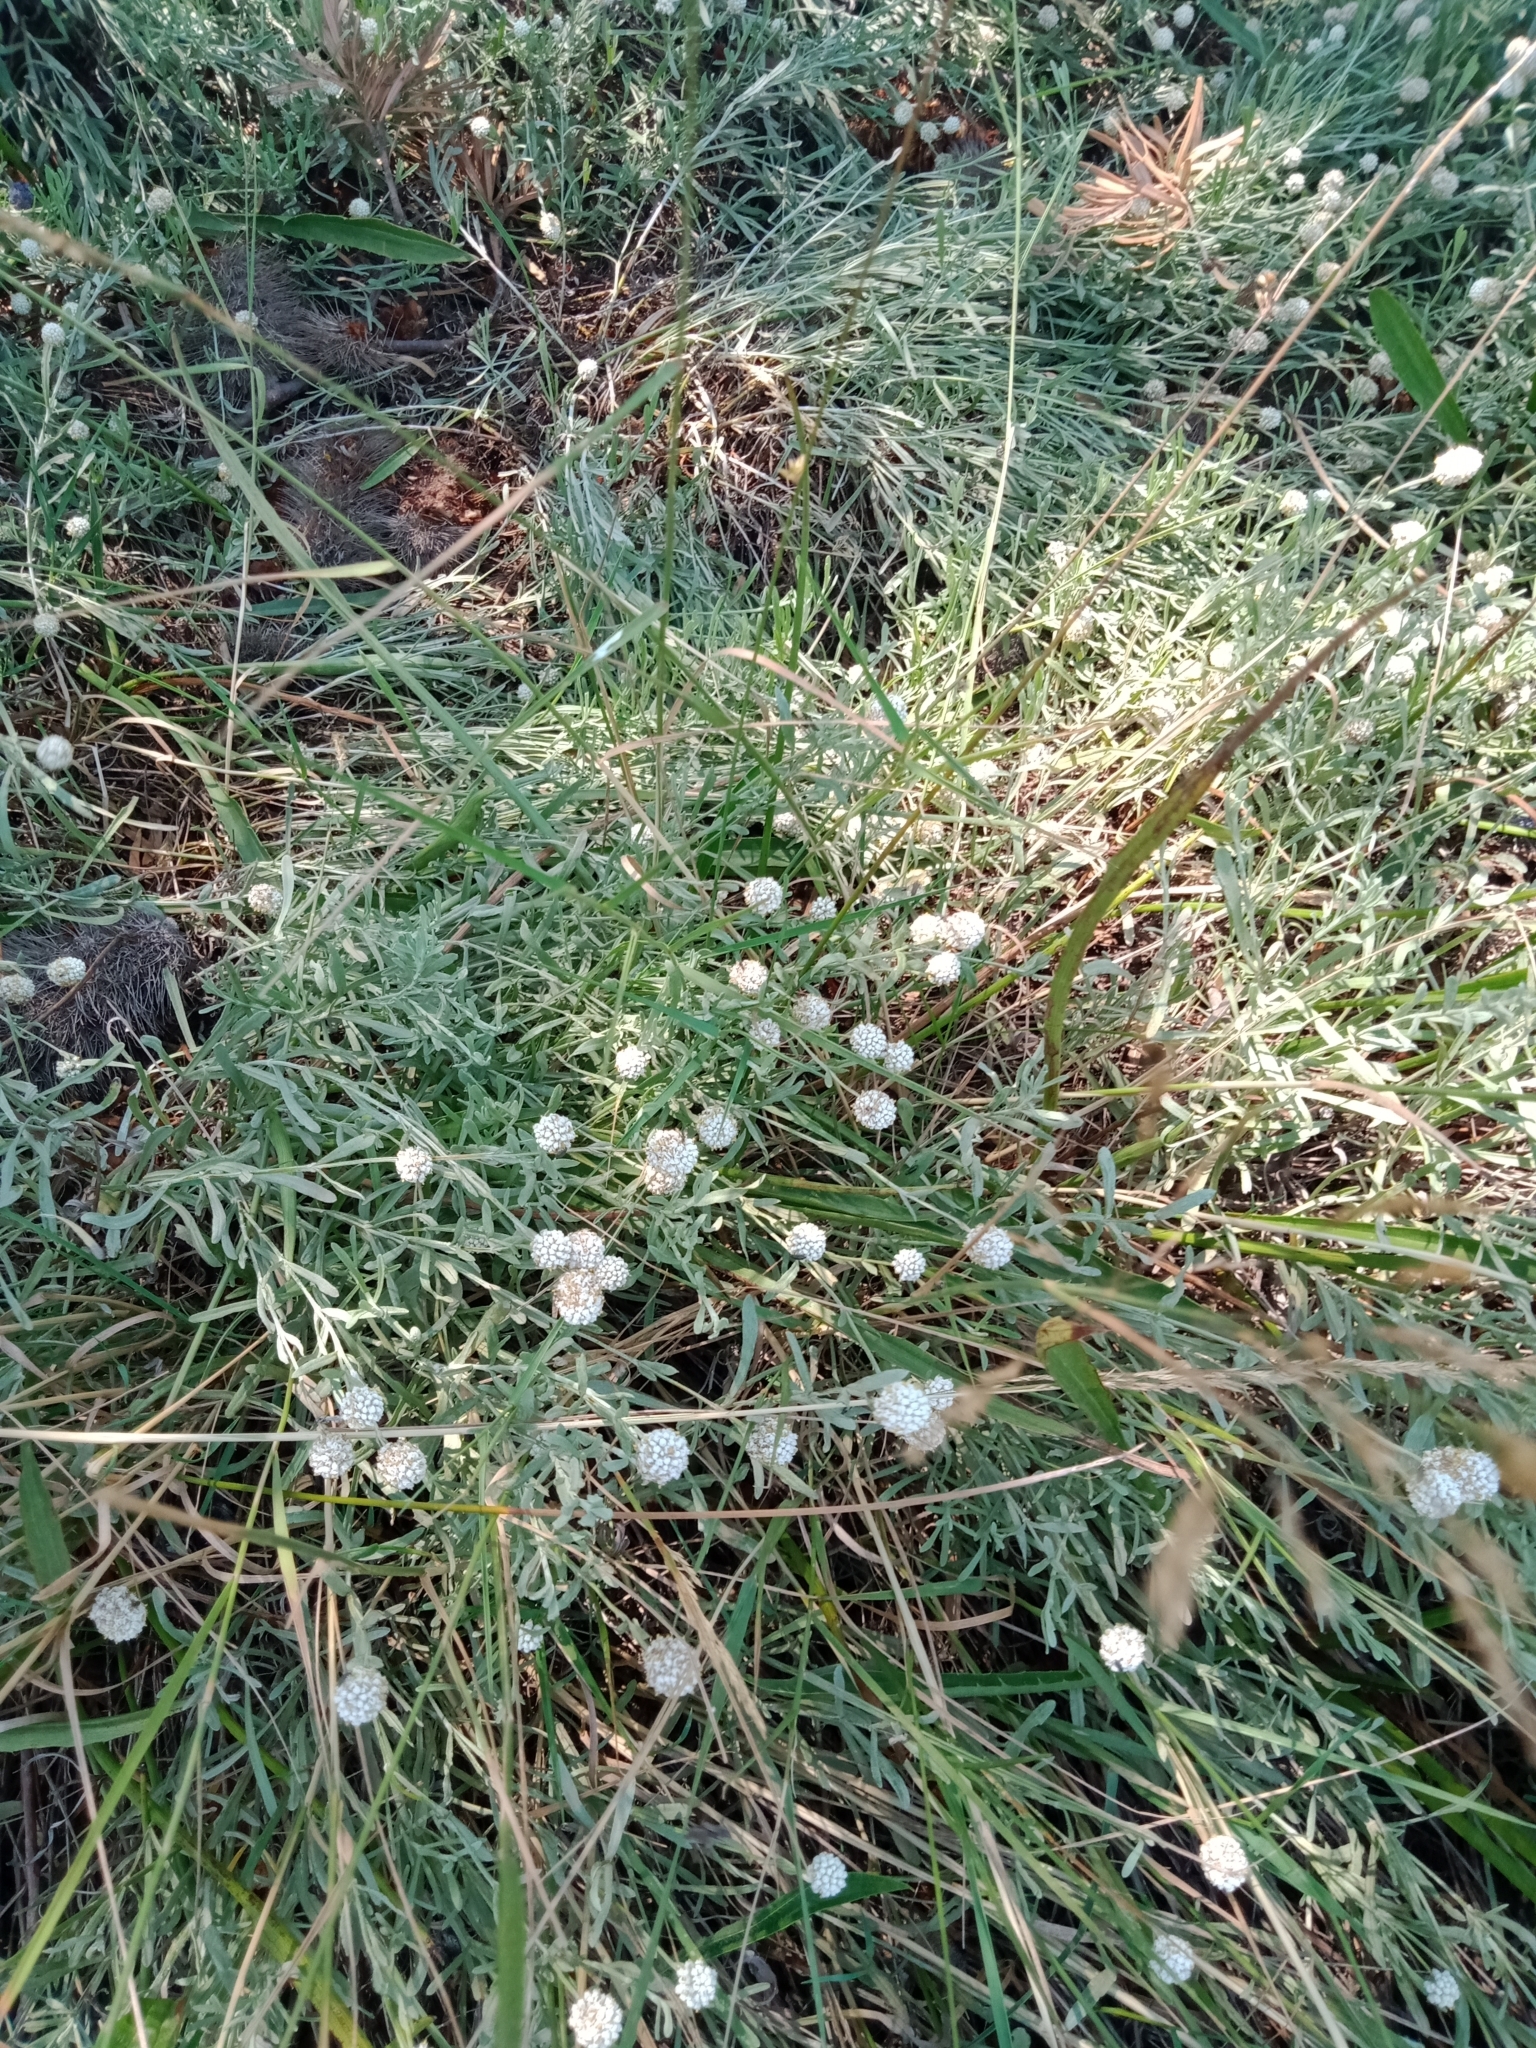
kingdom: Plantae
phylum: Tracheophyta
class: Magnoliopsida
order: Asterales
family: Asteraceae
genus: Calocephalus
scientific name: Calocephalus lacteus
